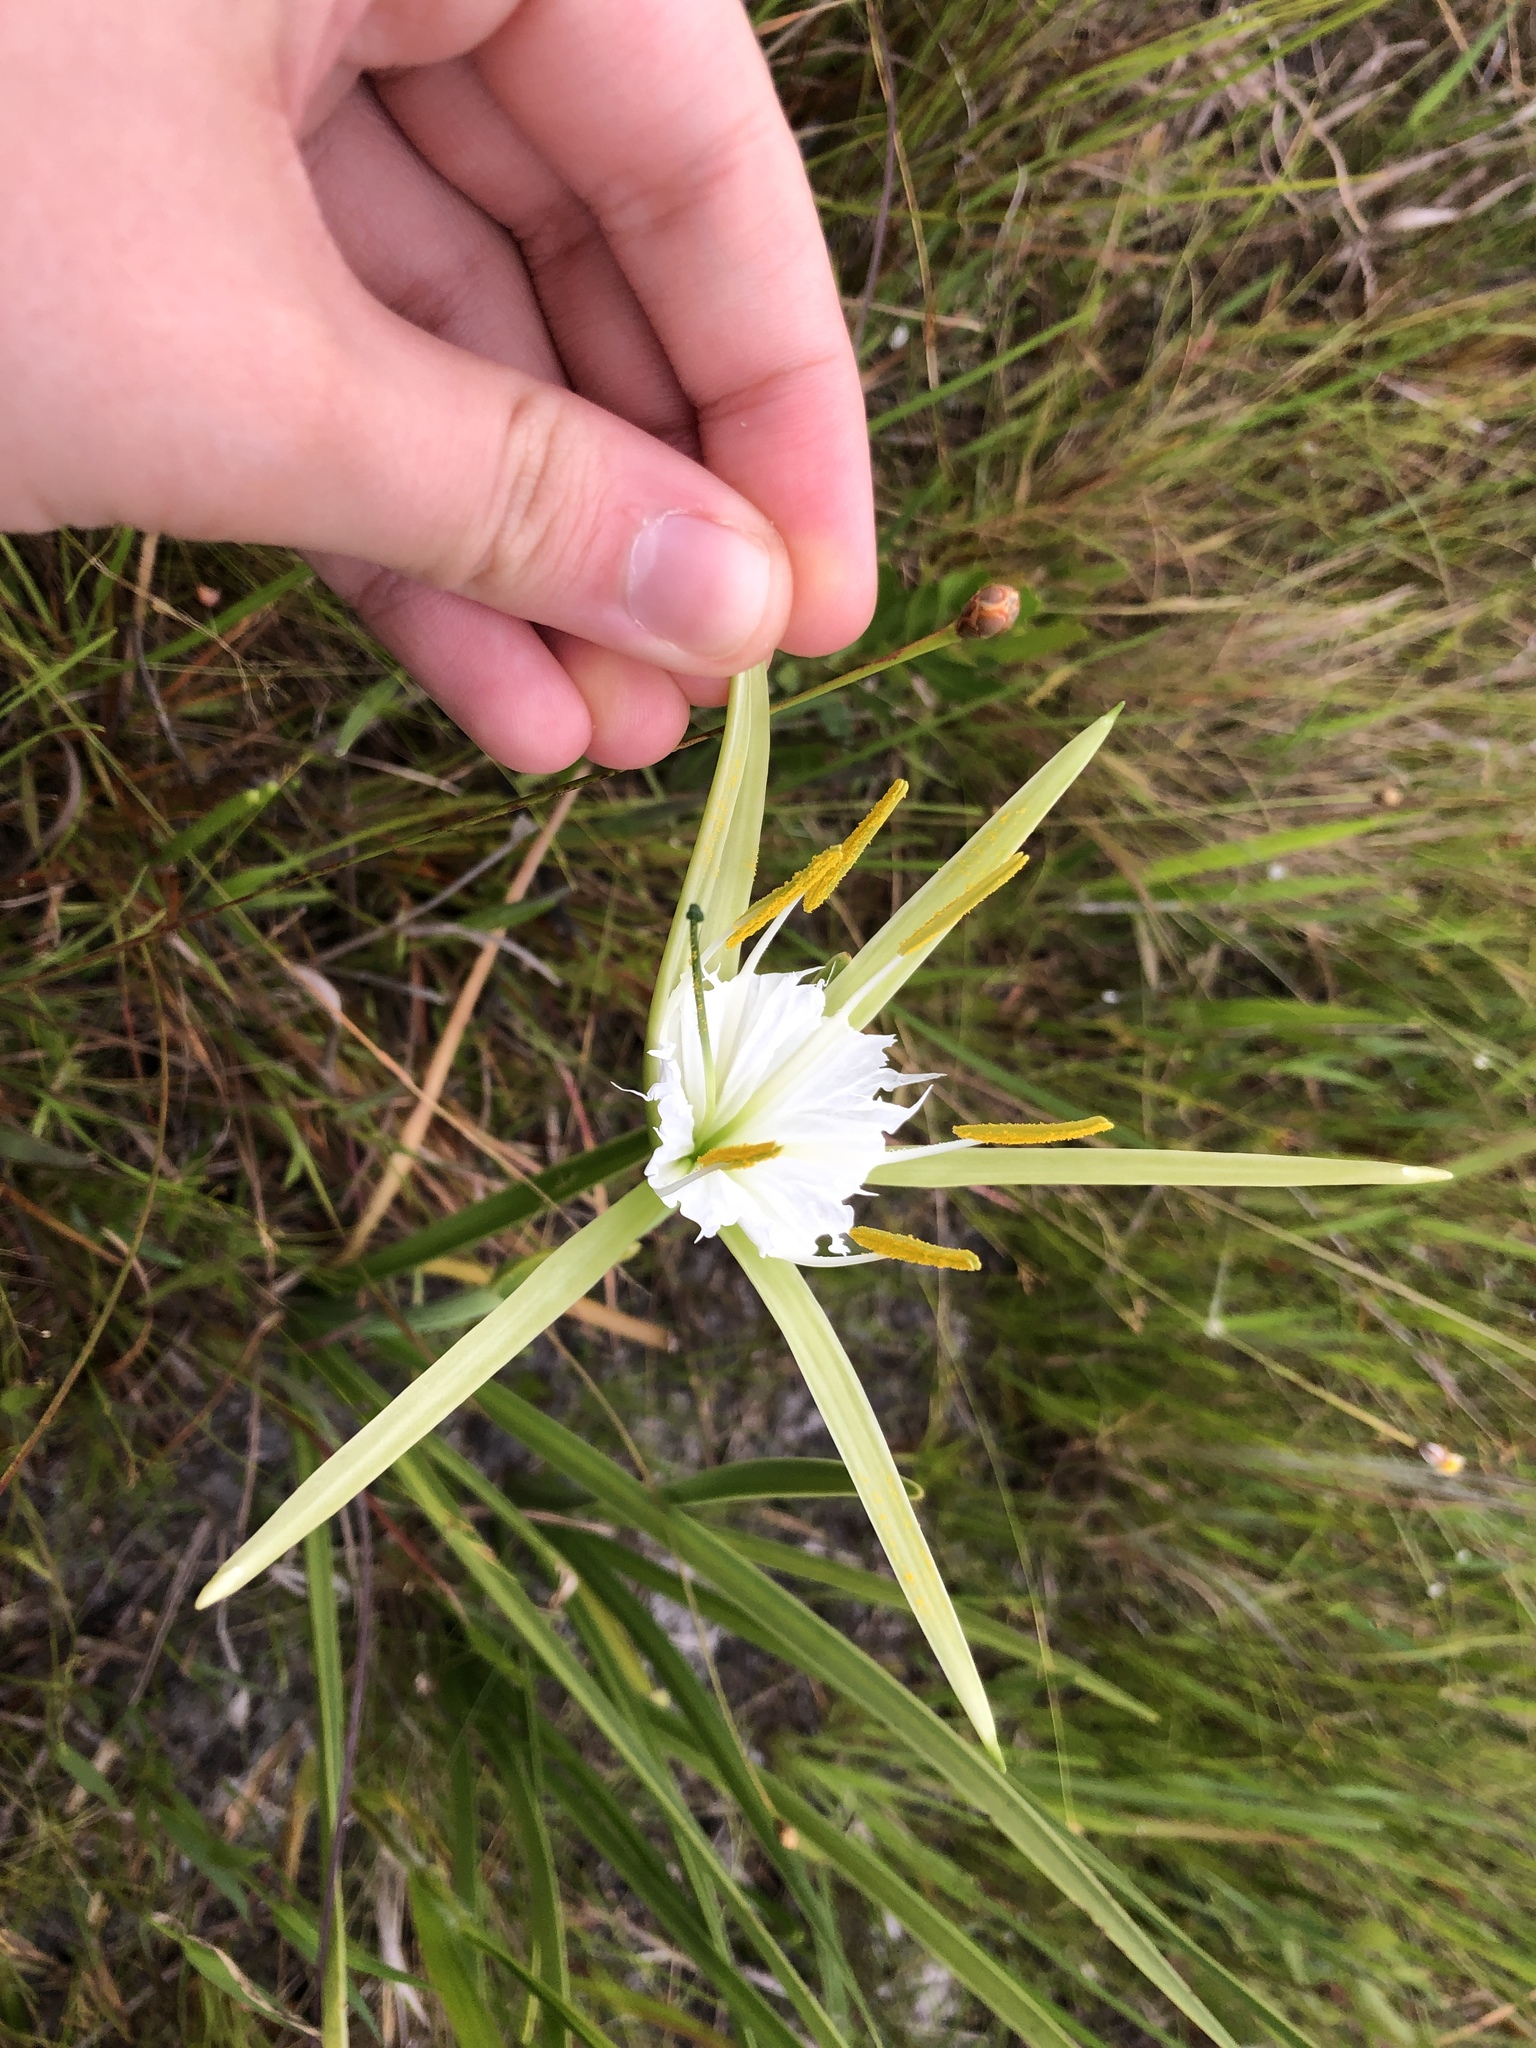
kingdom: Plantae
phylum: Tracheophyta
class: Liliopsida
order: Asparagales
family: Amaryllidaceae
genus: Hymenocallis
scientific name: Hymenocallis palmeri
